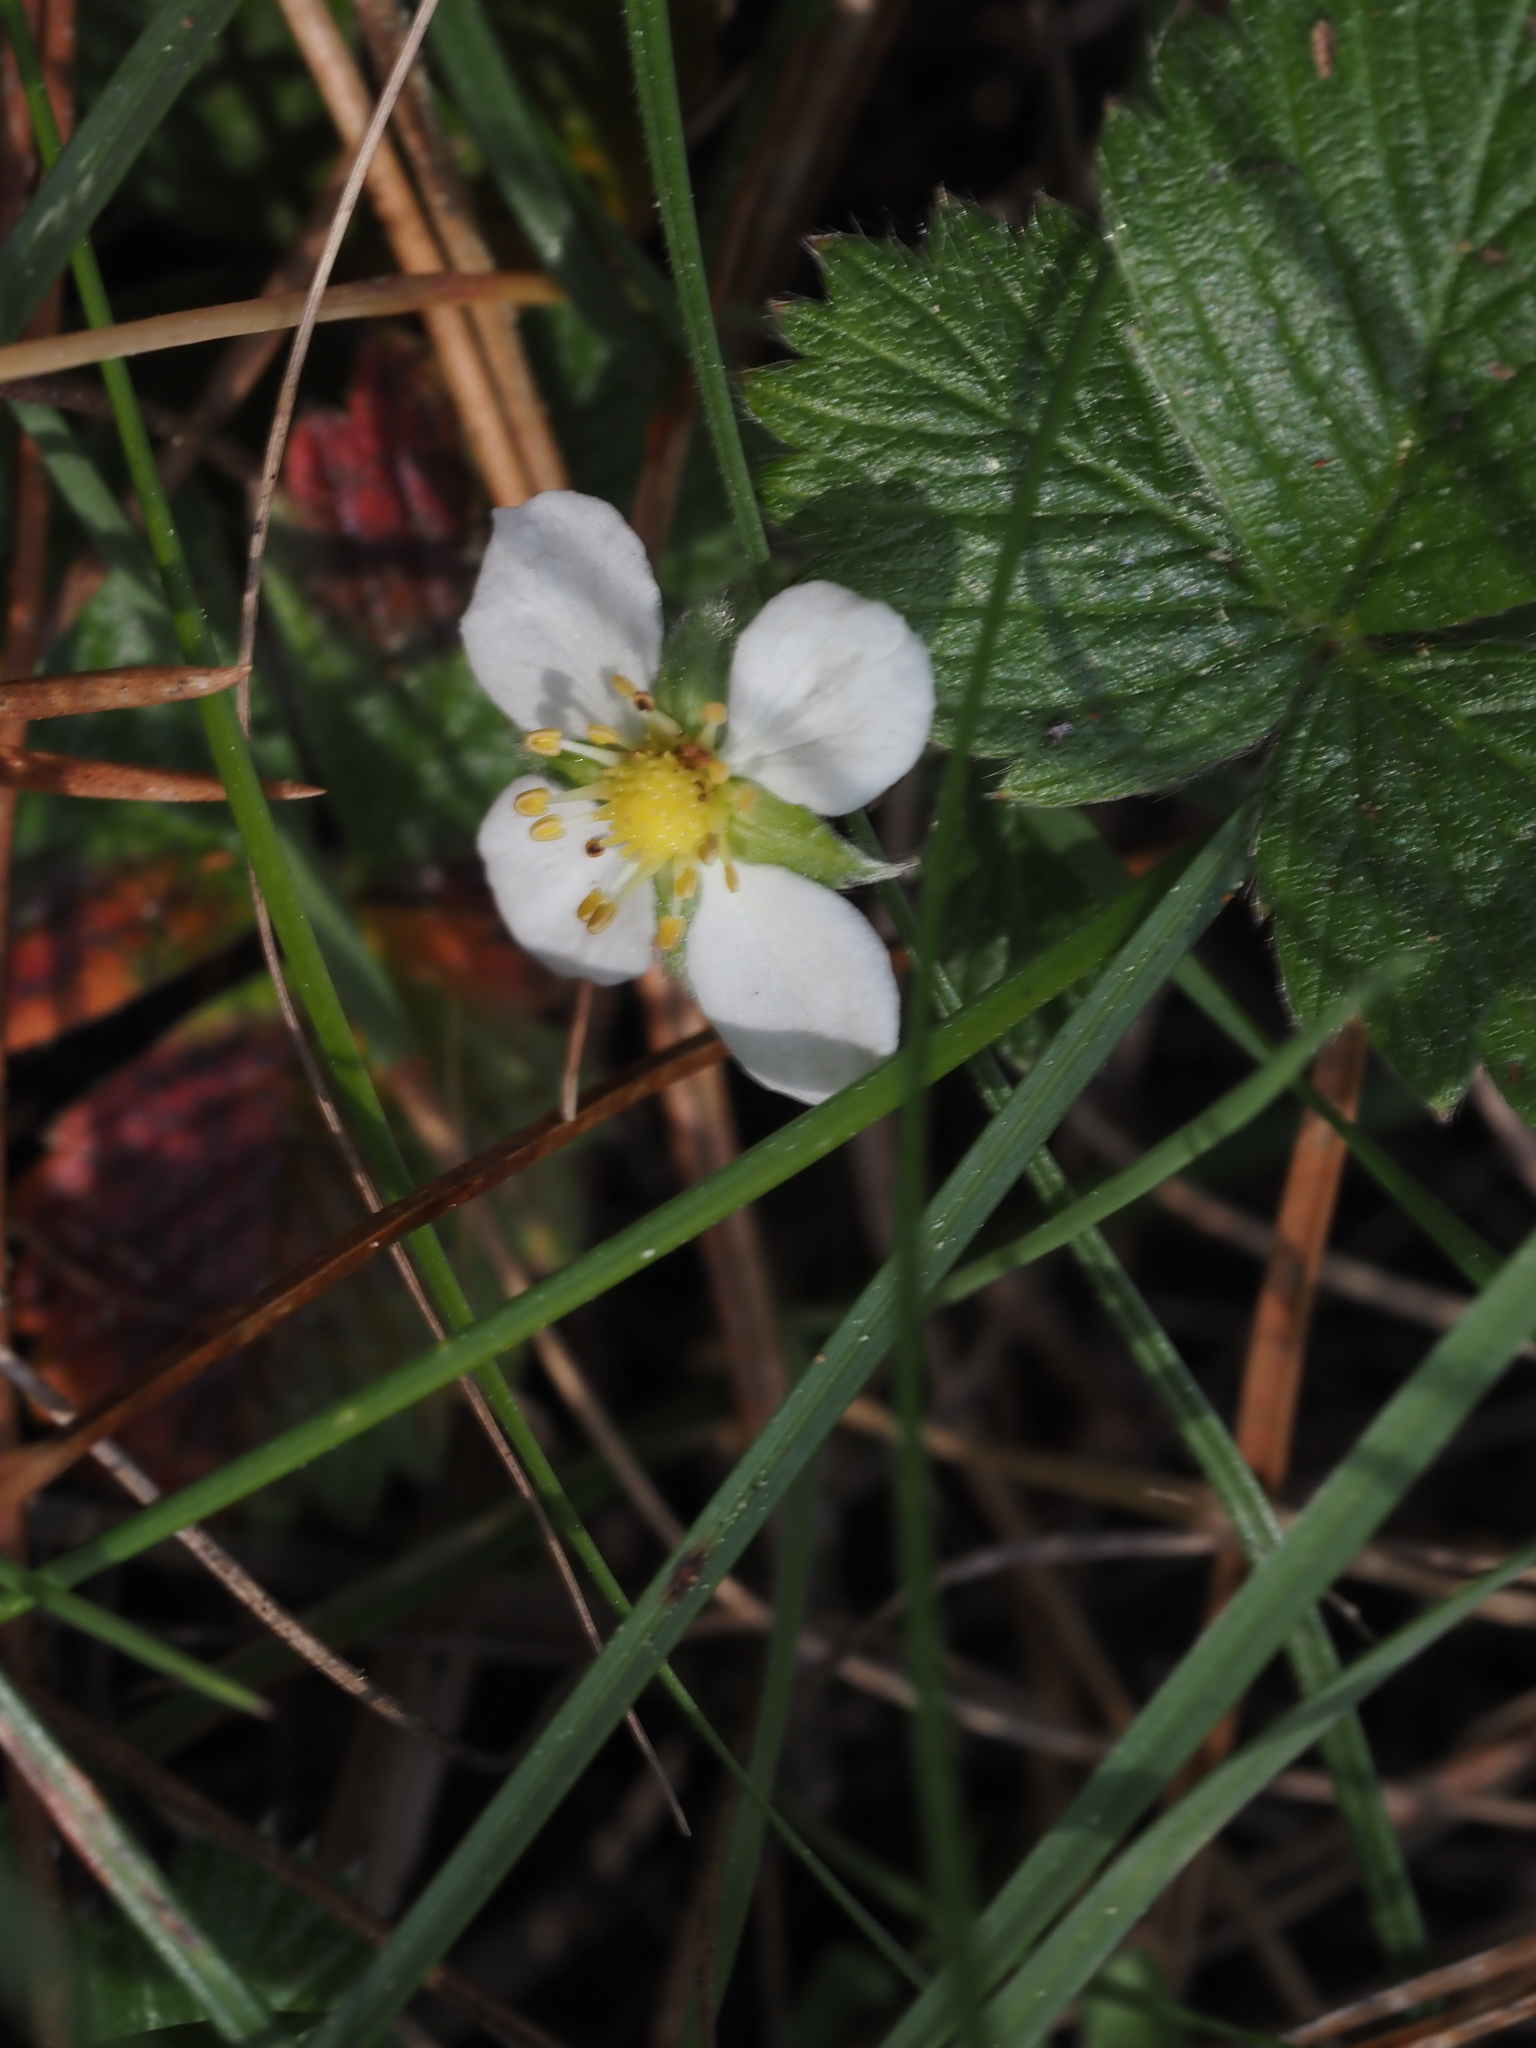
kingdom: Plantae
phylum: Tracheophyta
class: Magnoliopsida
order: Rosales
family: Rosaceae
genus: Fragaria
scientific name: Fragaria vesca
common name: Wild strawberry
